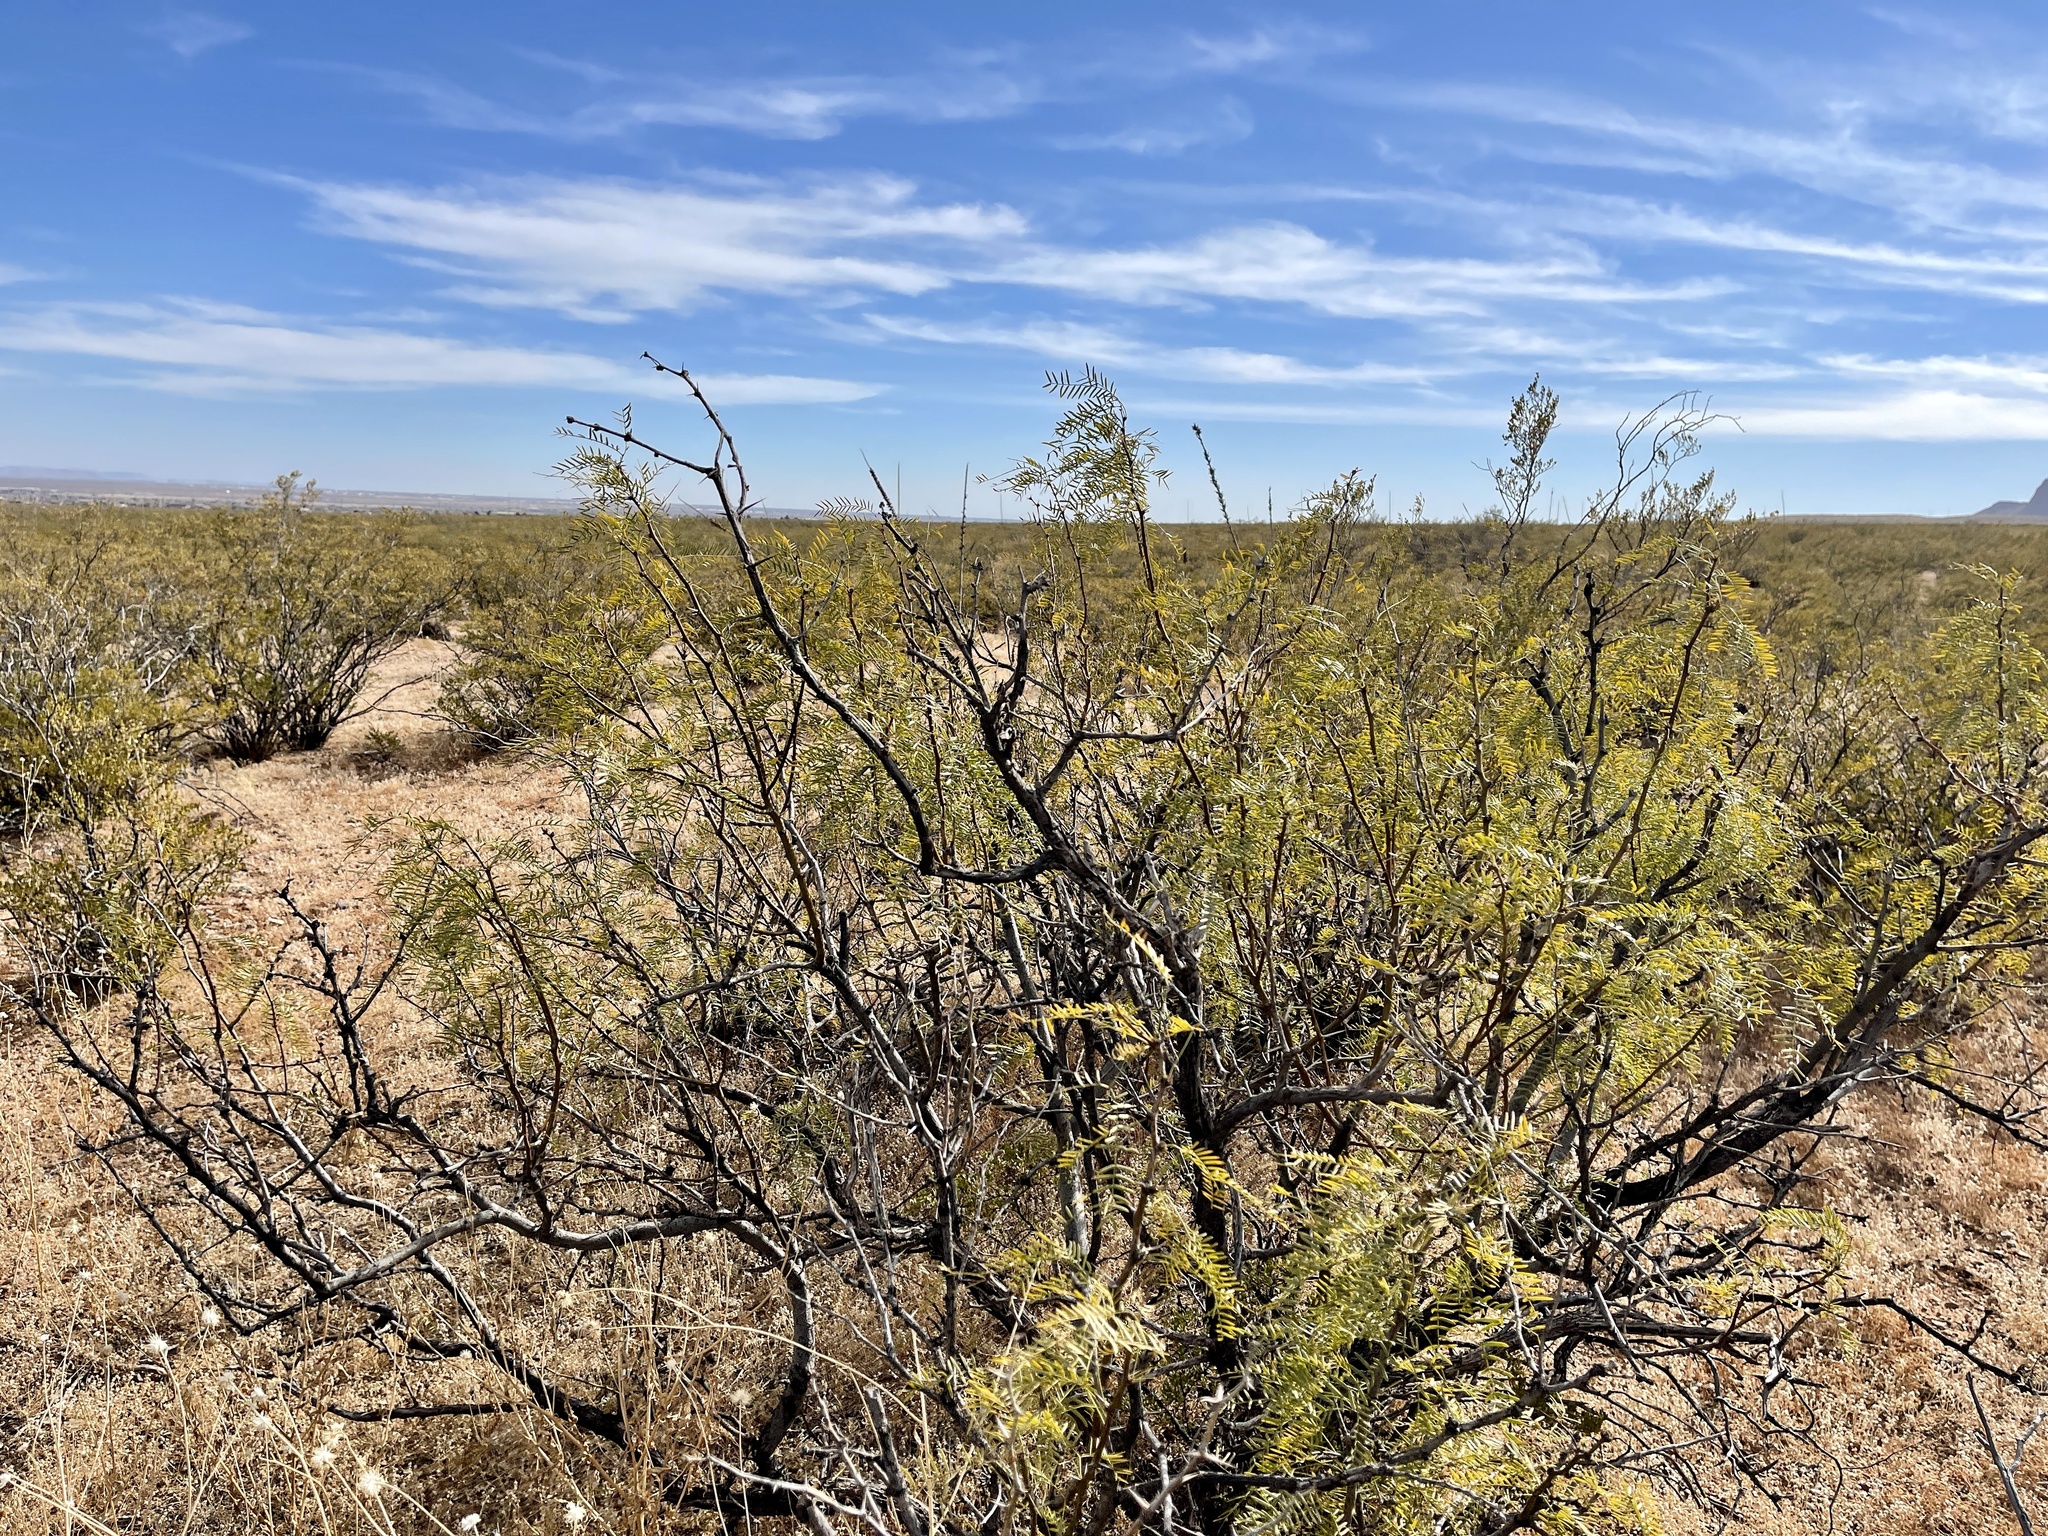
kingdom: Plantae
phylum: Tracheophyta
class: Magnoliopsida
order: Fabales
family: Fabaceae
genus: Prosopis
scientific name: Prosopis glandulosa
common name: Honey mesquite
